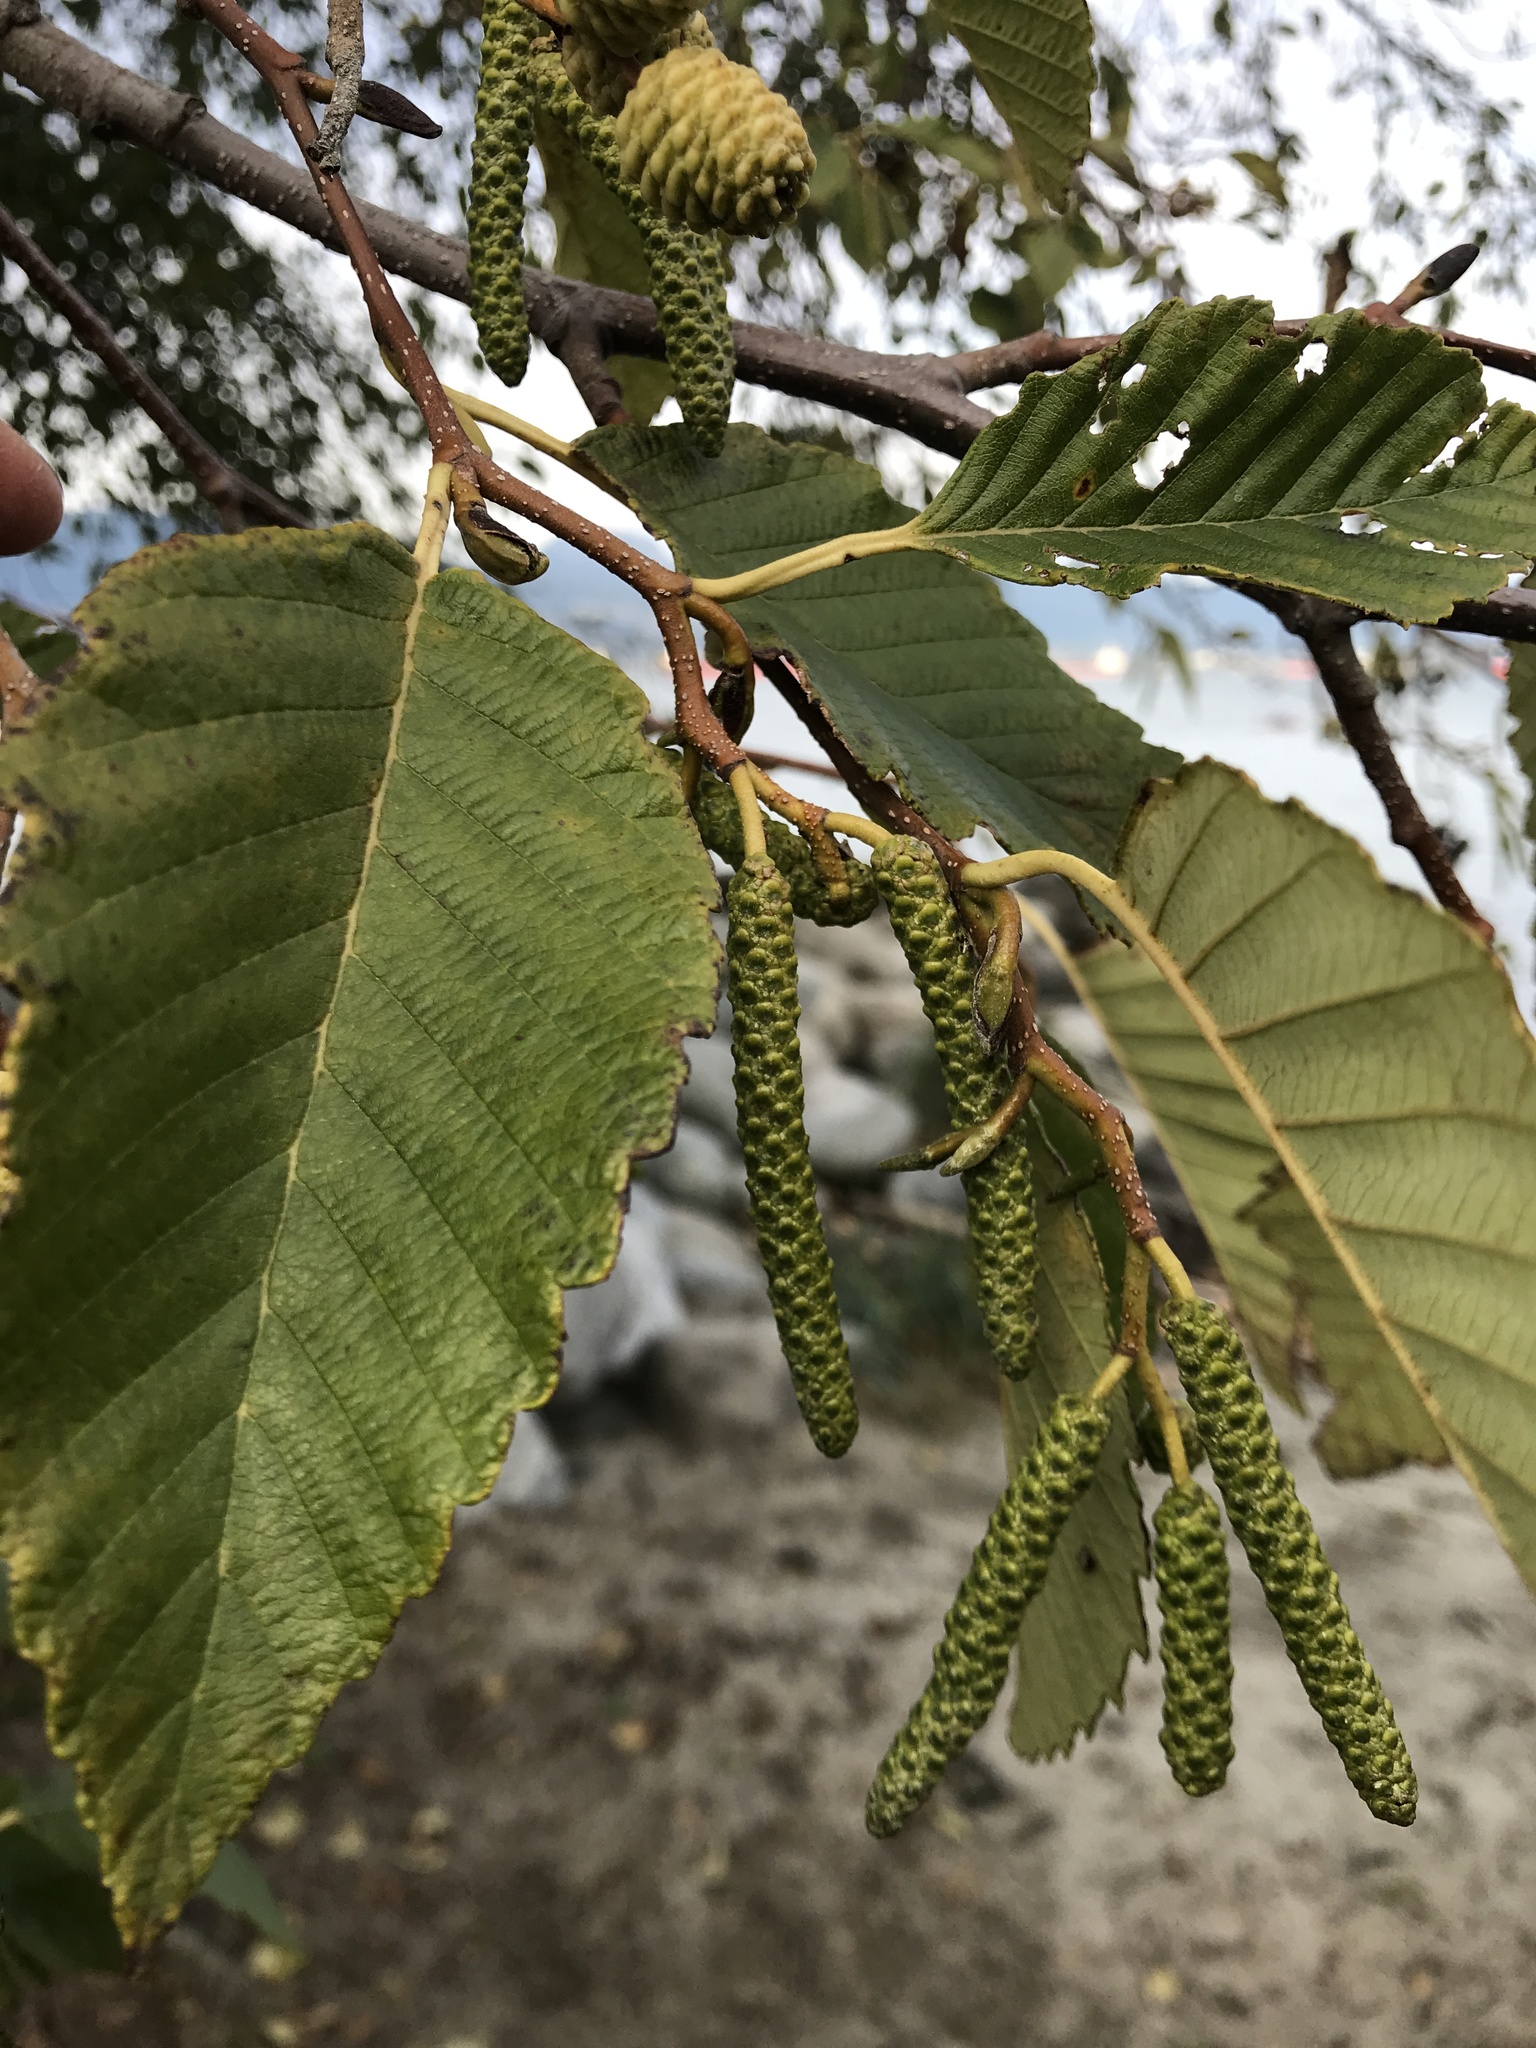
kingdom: Plantae
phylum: Tracheophyta
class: Magnoliopsida
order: Fagales
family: Betulaceae
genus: Alnus
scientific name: Alnus rubra
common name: Red alder
